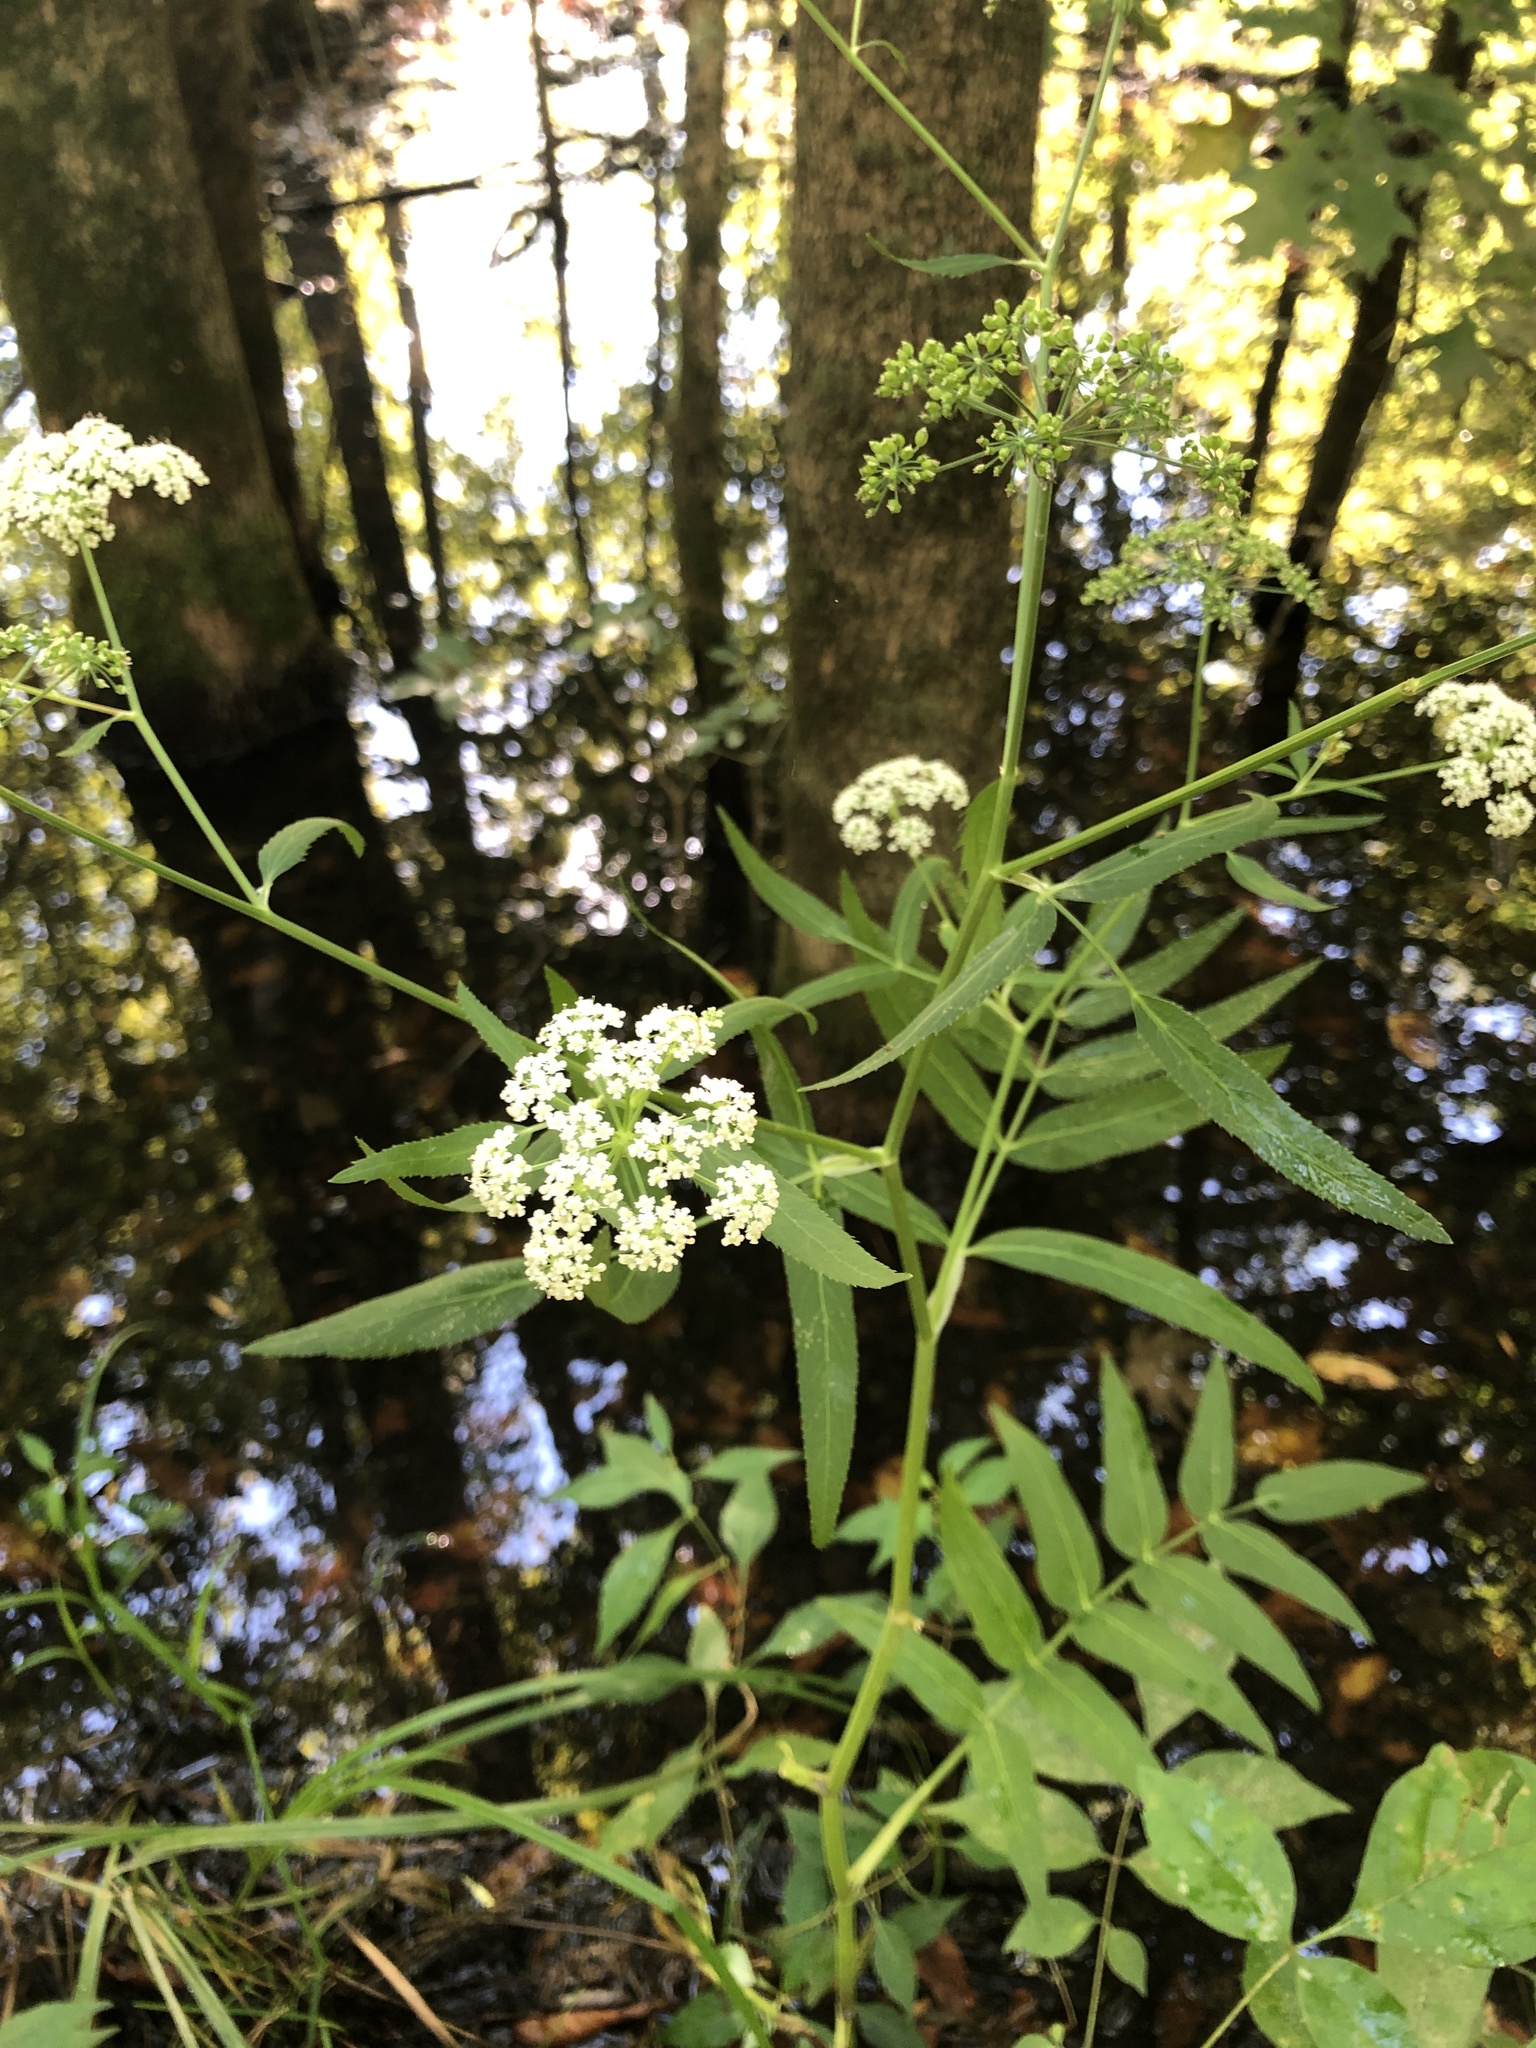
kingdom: Plantae
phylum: Tracheophyta
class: Magnoliopsida
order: Apiales
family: Apiaceae
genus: Sium
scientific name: Sium suave
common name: Hemlock water-parsnip
